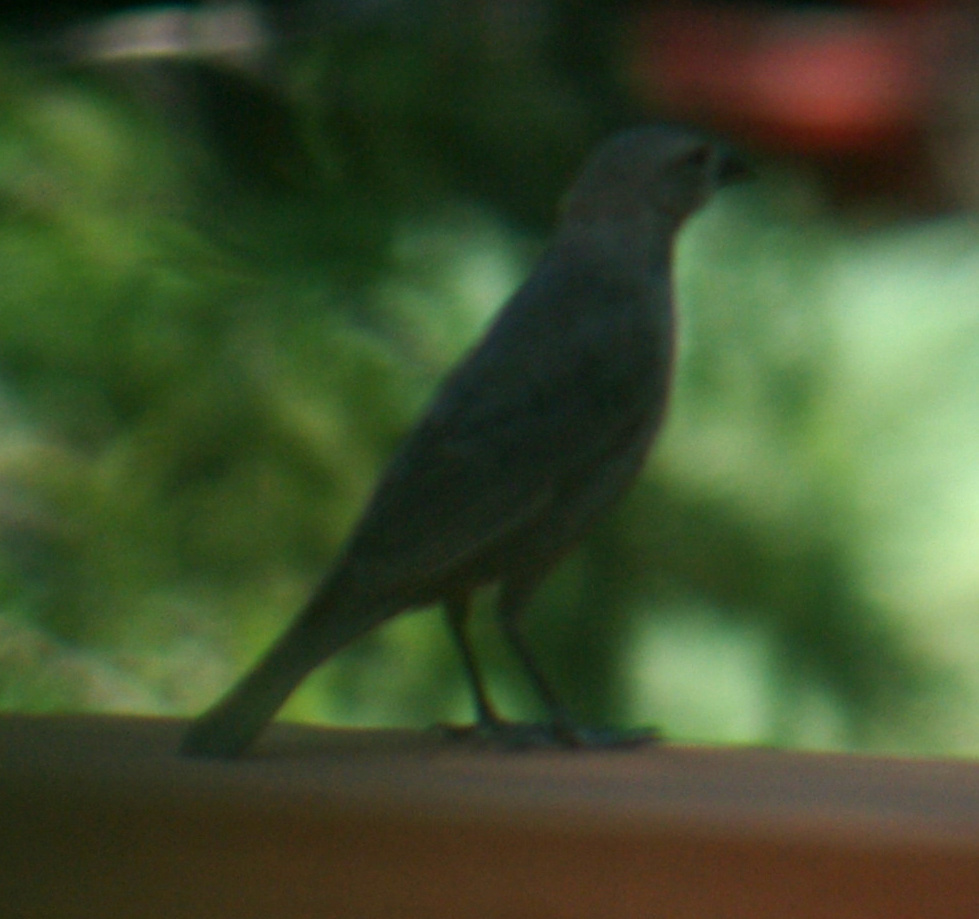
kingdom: Animalia
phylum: Chordata
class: Aves
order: Passeriformes
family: Icteridae
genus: Molothrus
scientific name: Molothrus ater
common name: Brown-headed cowbird
